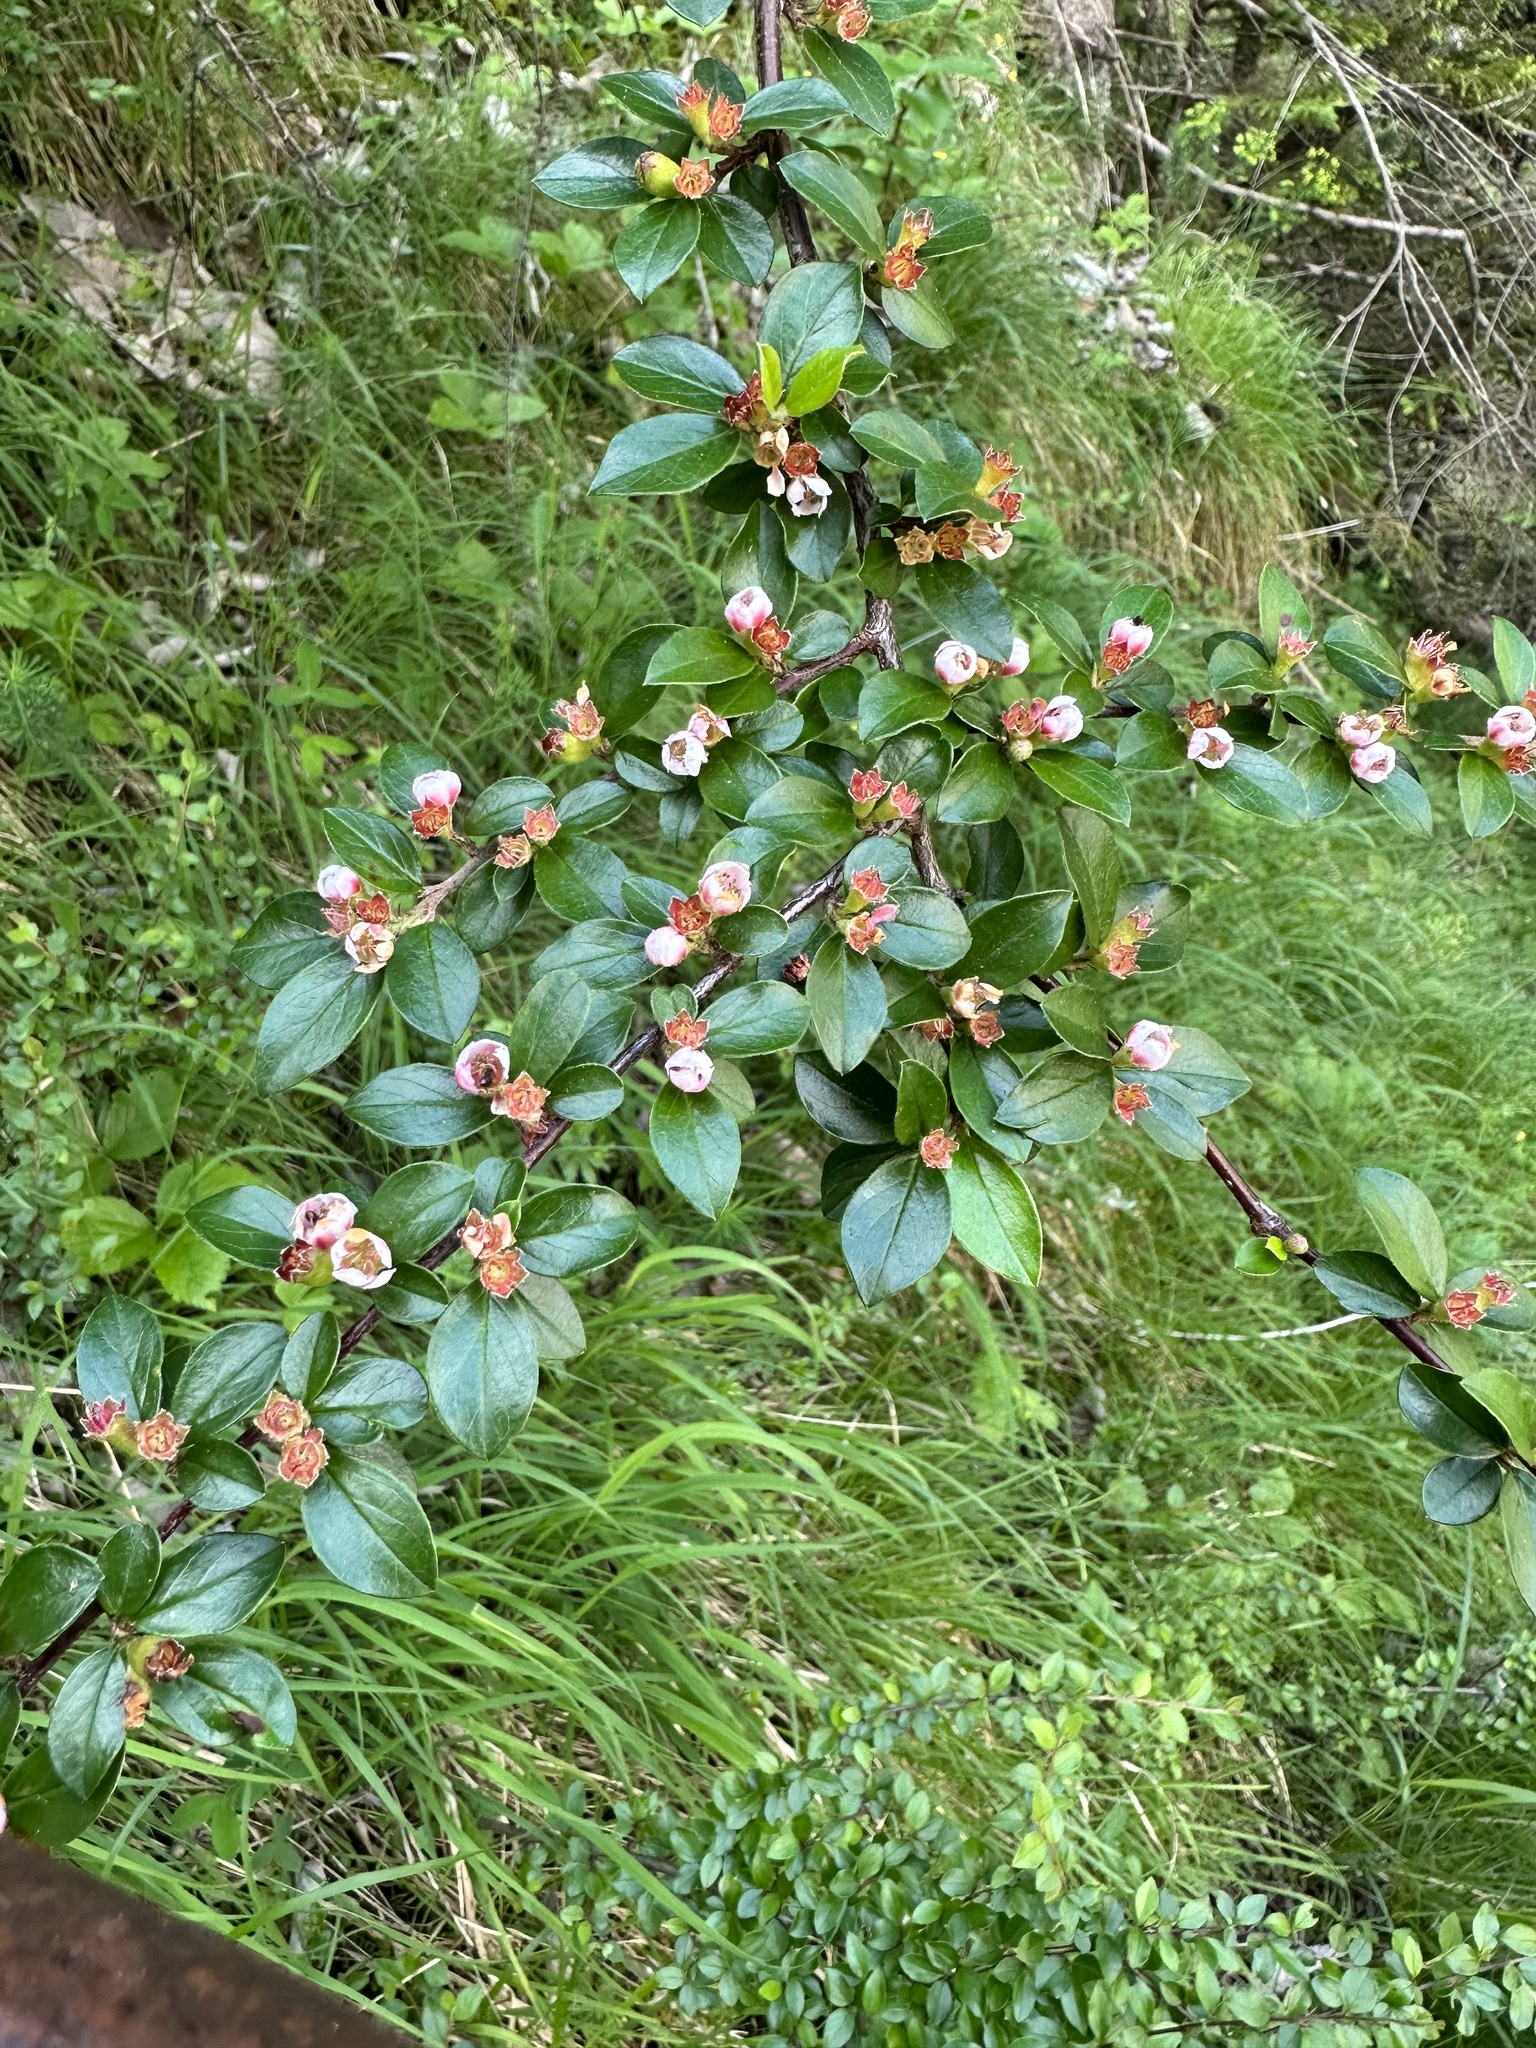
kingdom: Plantae
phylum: Tracheophyta
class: Magnoliopsida
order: Rosales
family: Rosaceae
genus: Cotoneaster
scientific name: Cotoneaster divaricatus
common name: Spreading cotoneaster
